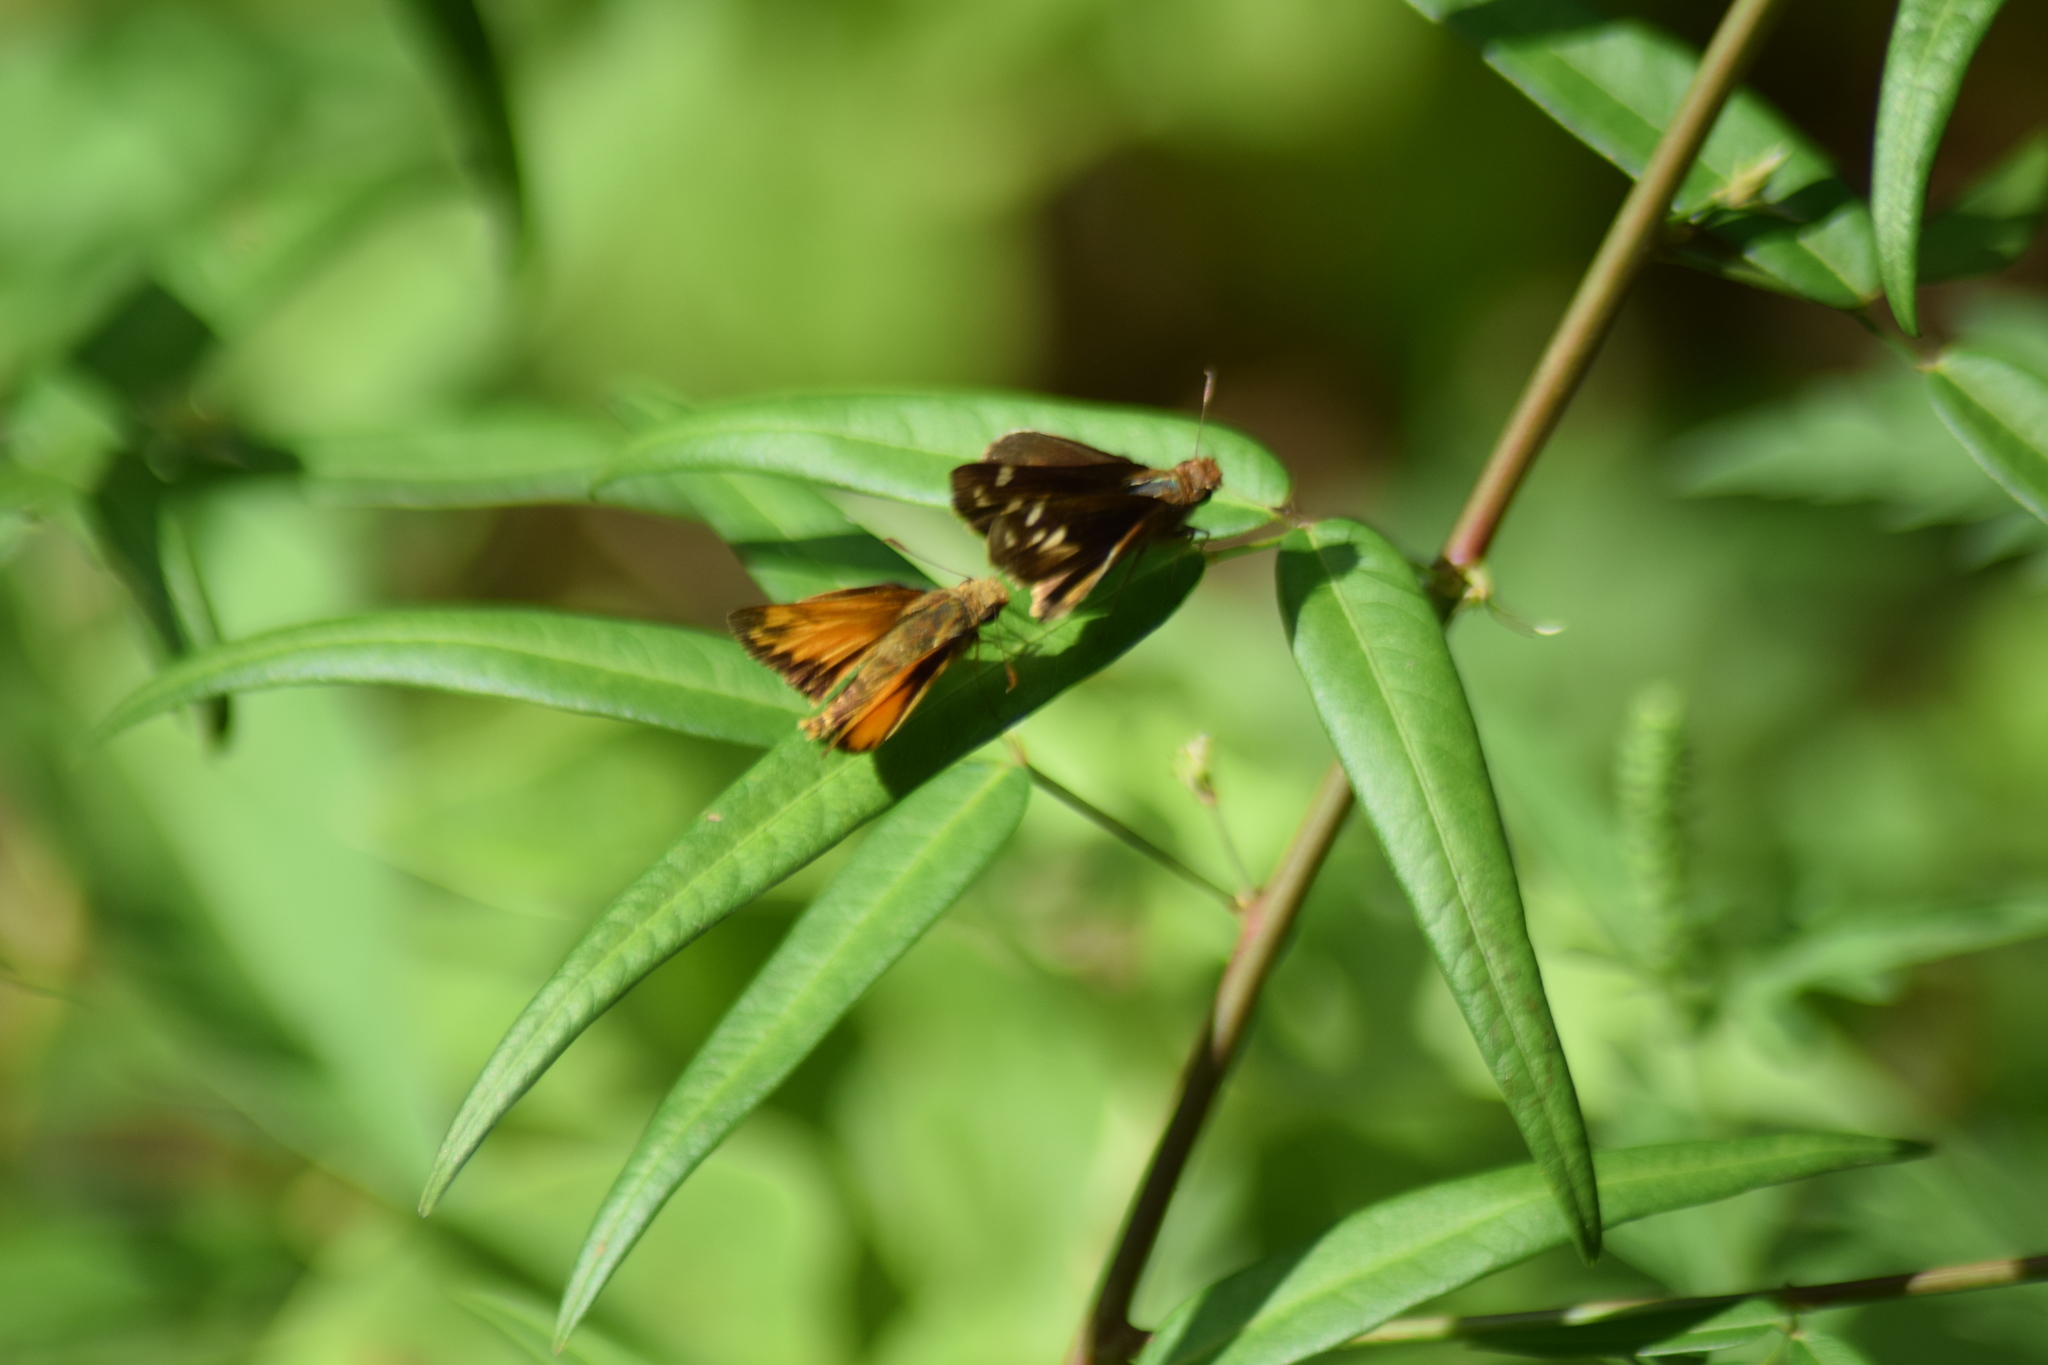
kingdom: Animalia
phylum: Arthropoda
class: Insecta
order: Lepidoptera
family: Hesperiidae
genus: Lon
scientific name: Lon zabulon
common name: Zabulon skipper
